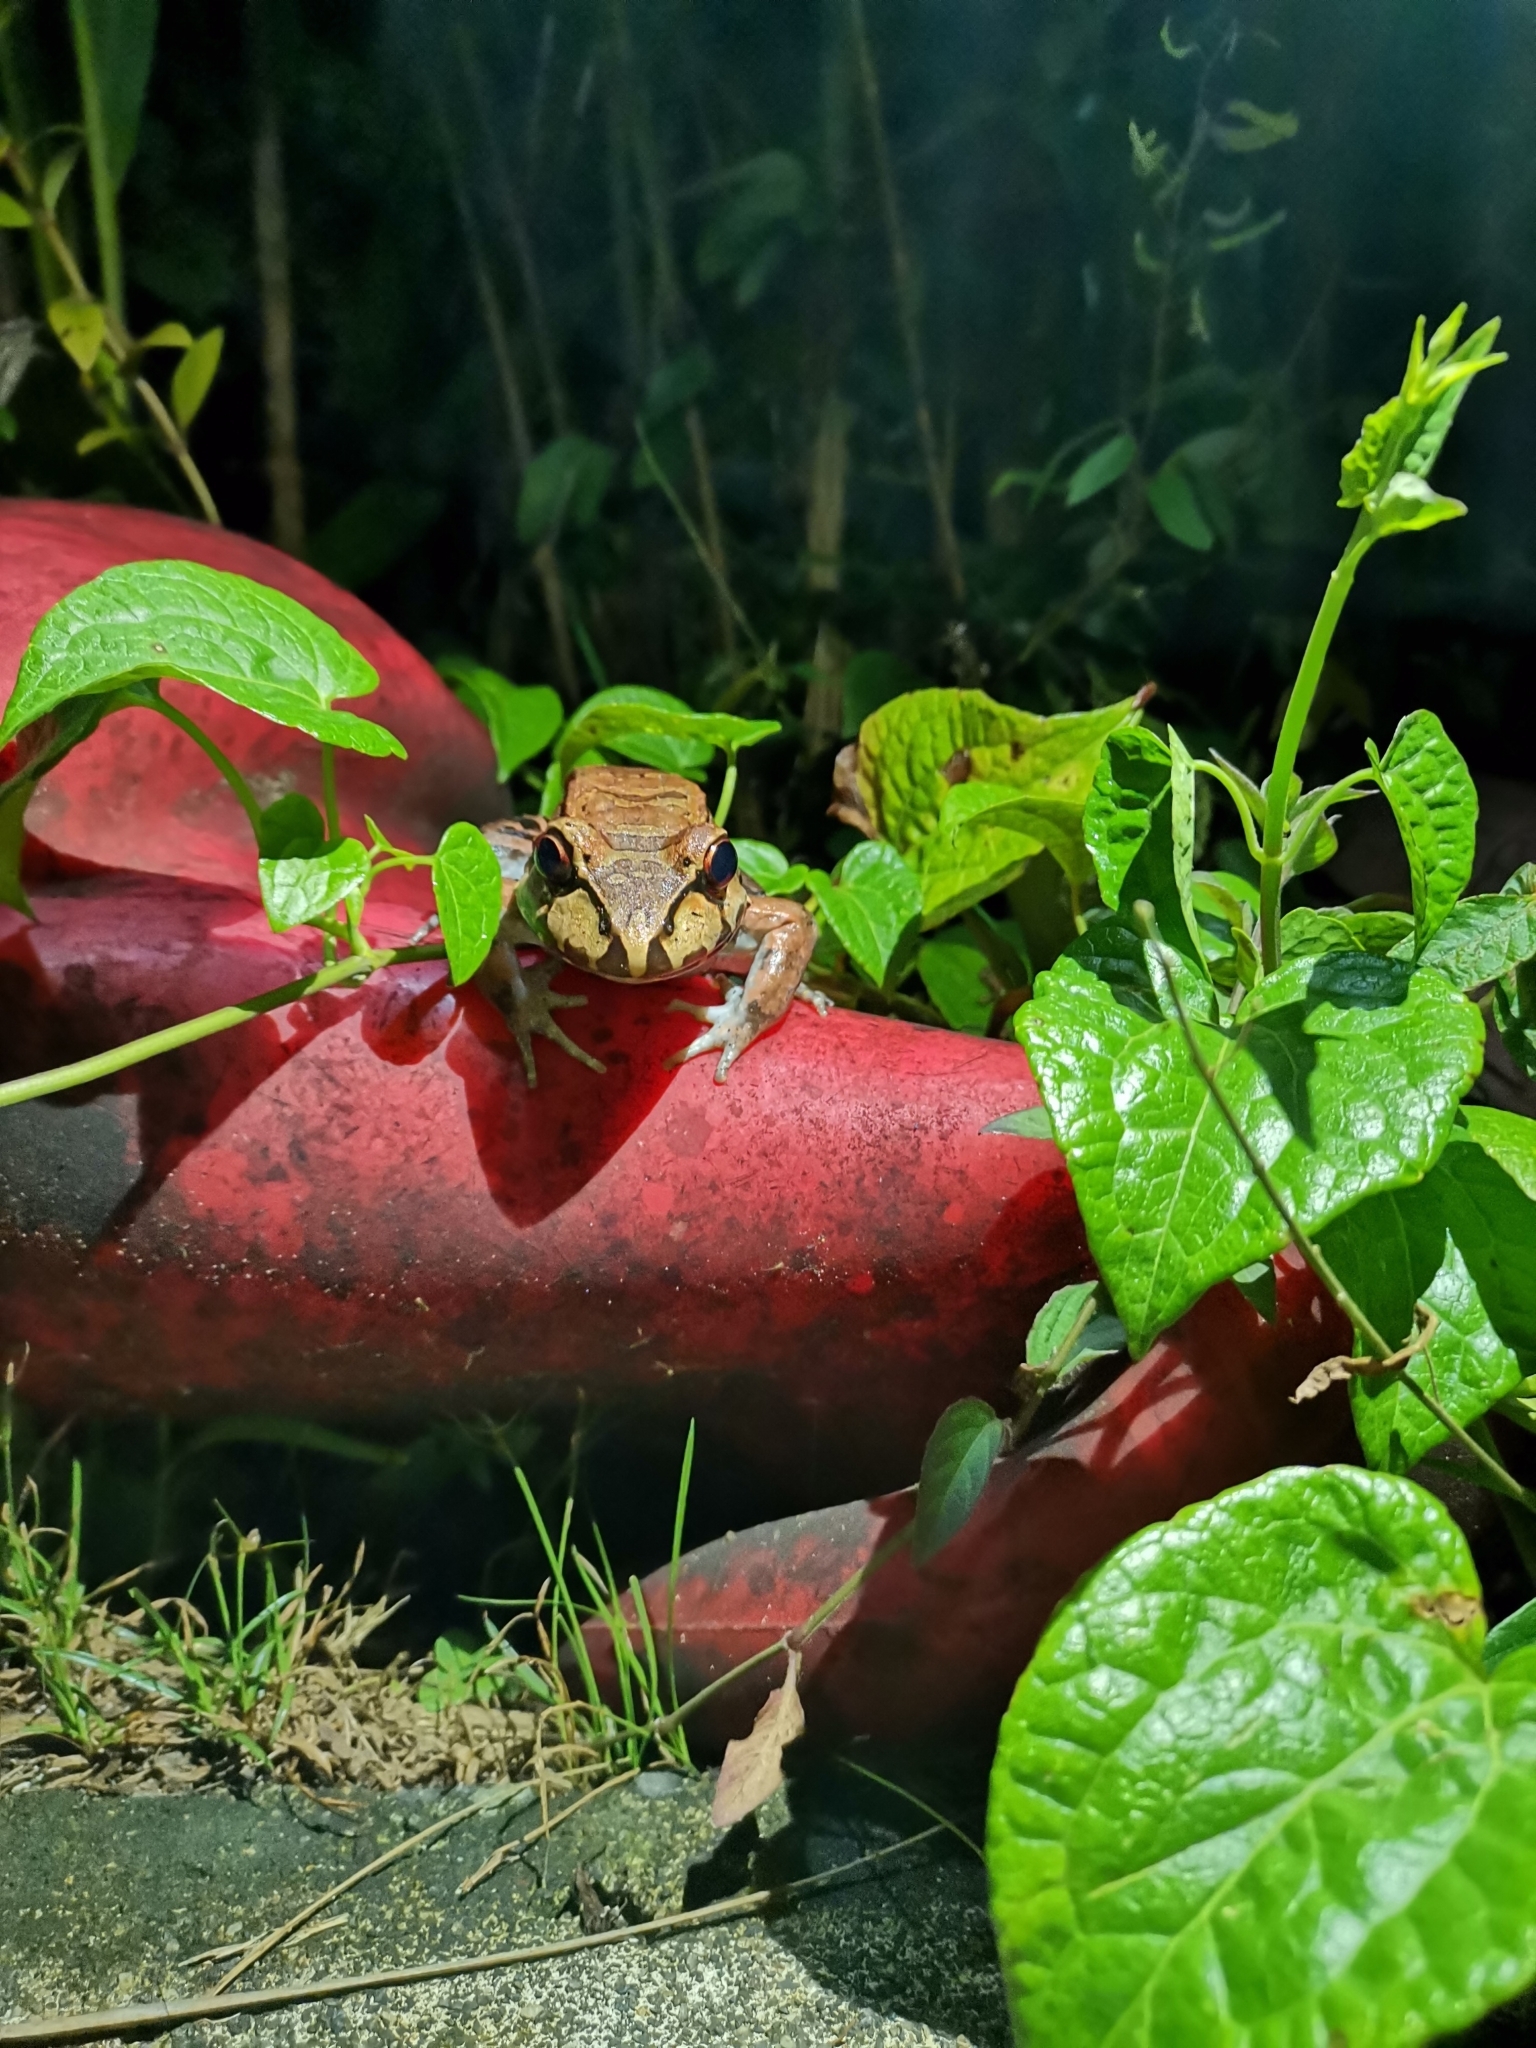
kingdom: Animalia
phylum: Chordata
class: Amphibia
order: Anura
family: Leptodactylidae
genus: Leptodactylus
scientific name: Leptodactylus savagei
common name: Savage's thin-toed frog
